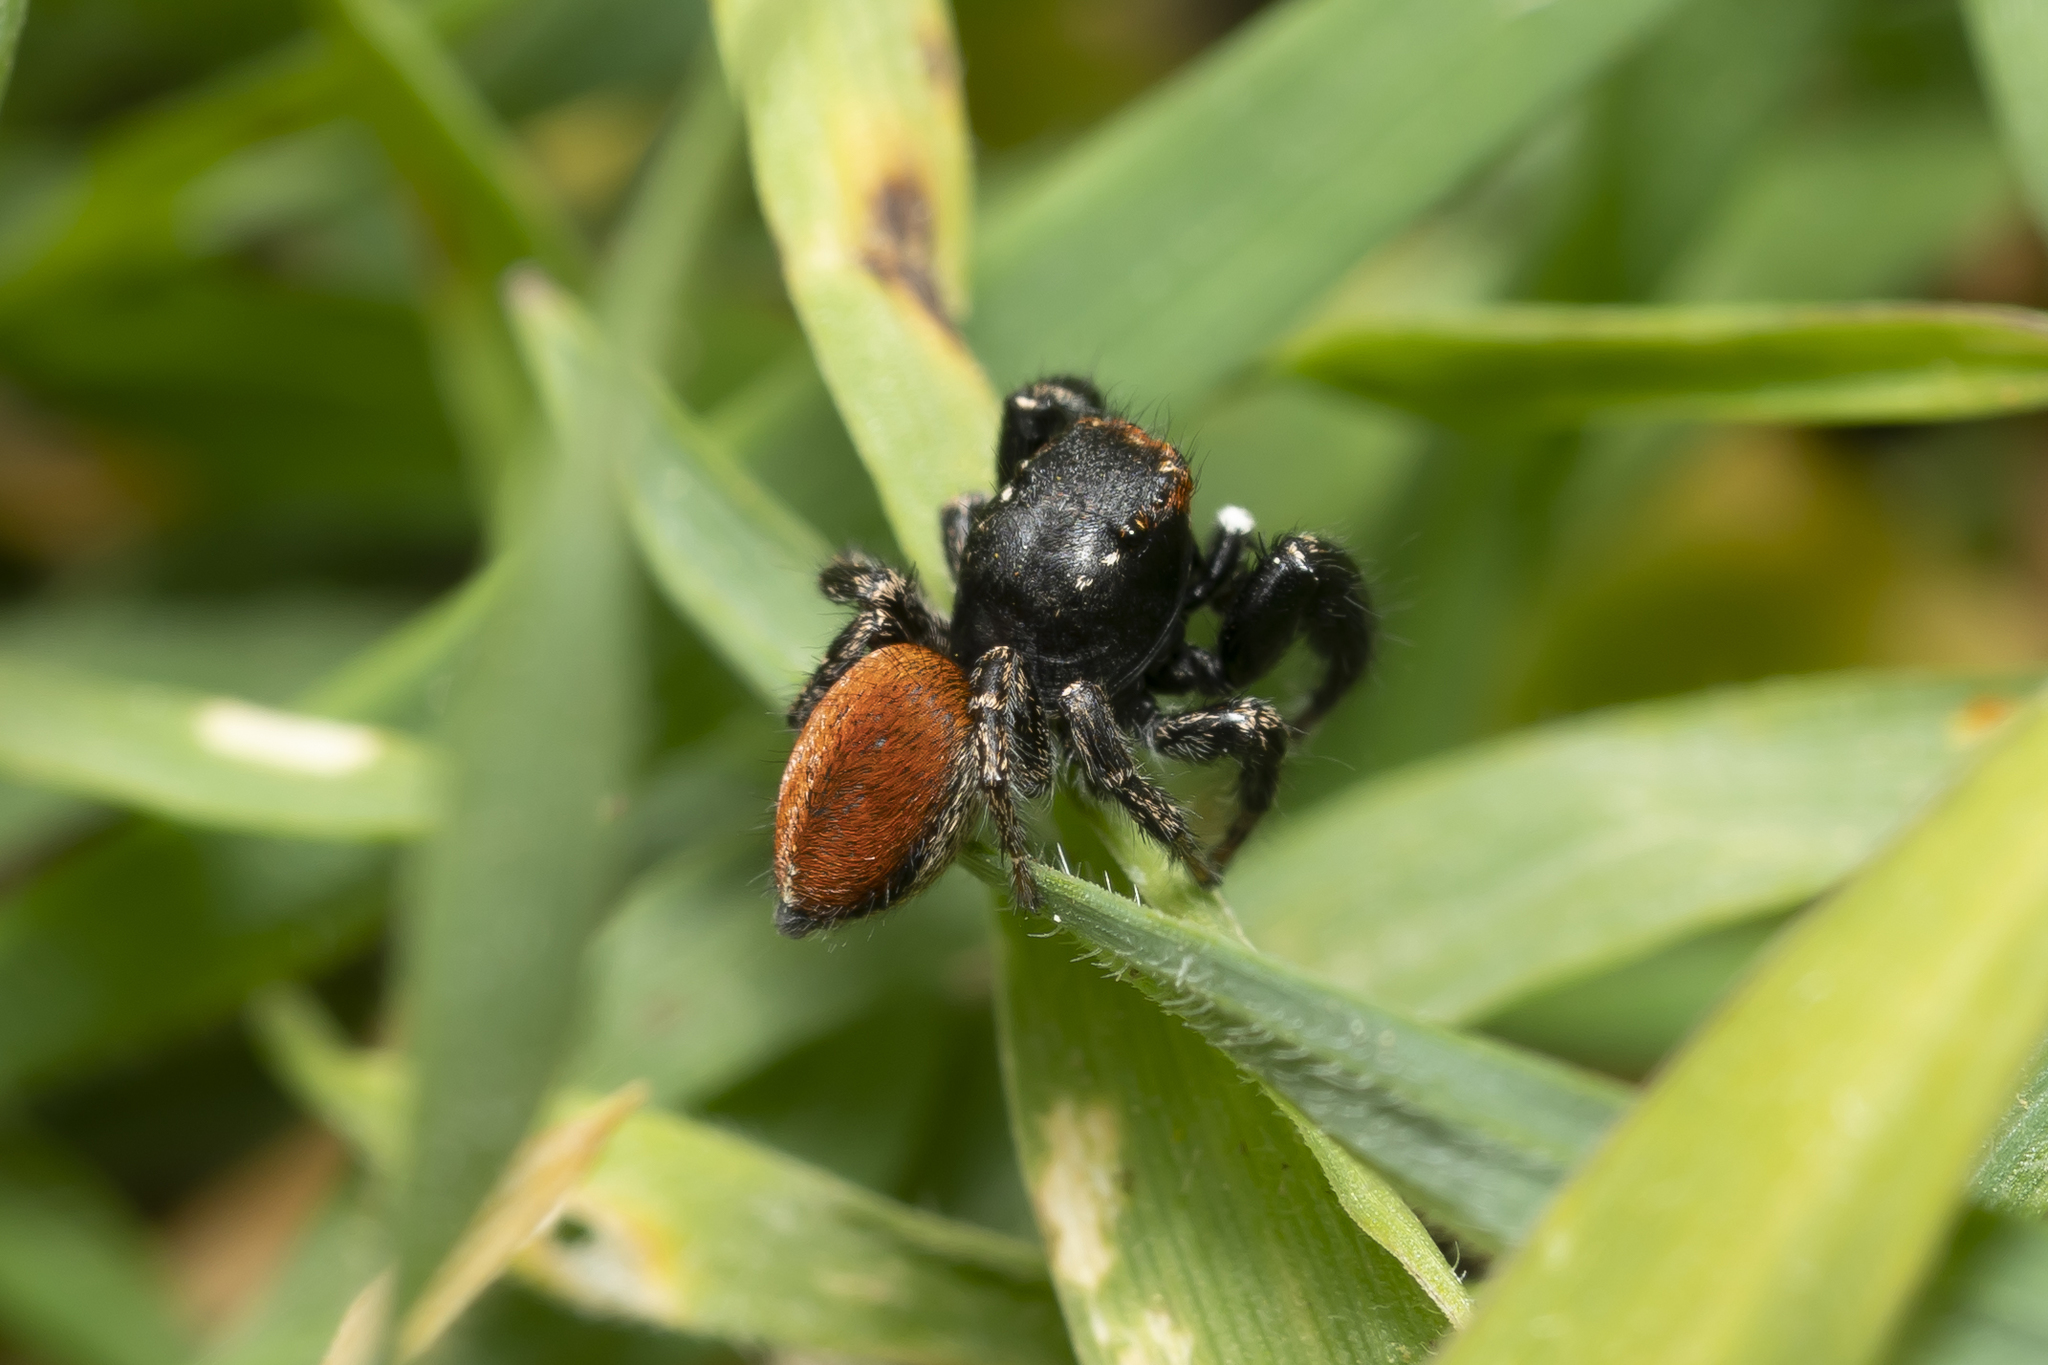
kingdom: Animalia
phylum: Arthropoda
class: Arachnida
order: Araneae
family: Salticidae
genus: Pellenes
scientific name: Pellenes diagonalis
